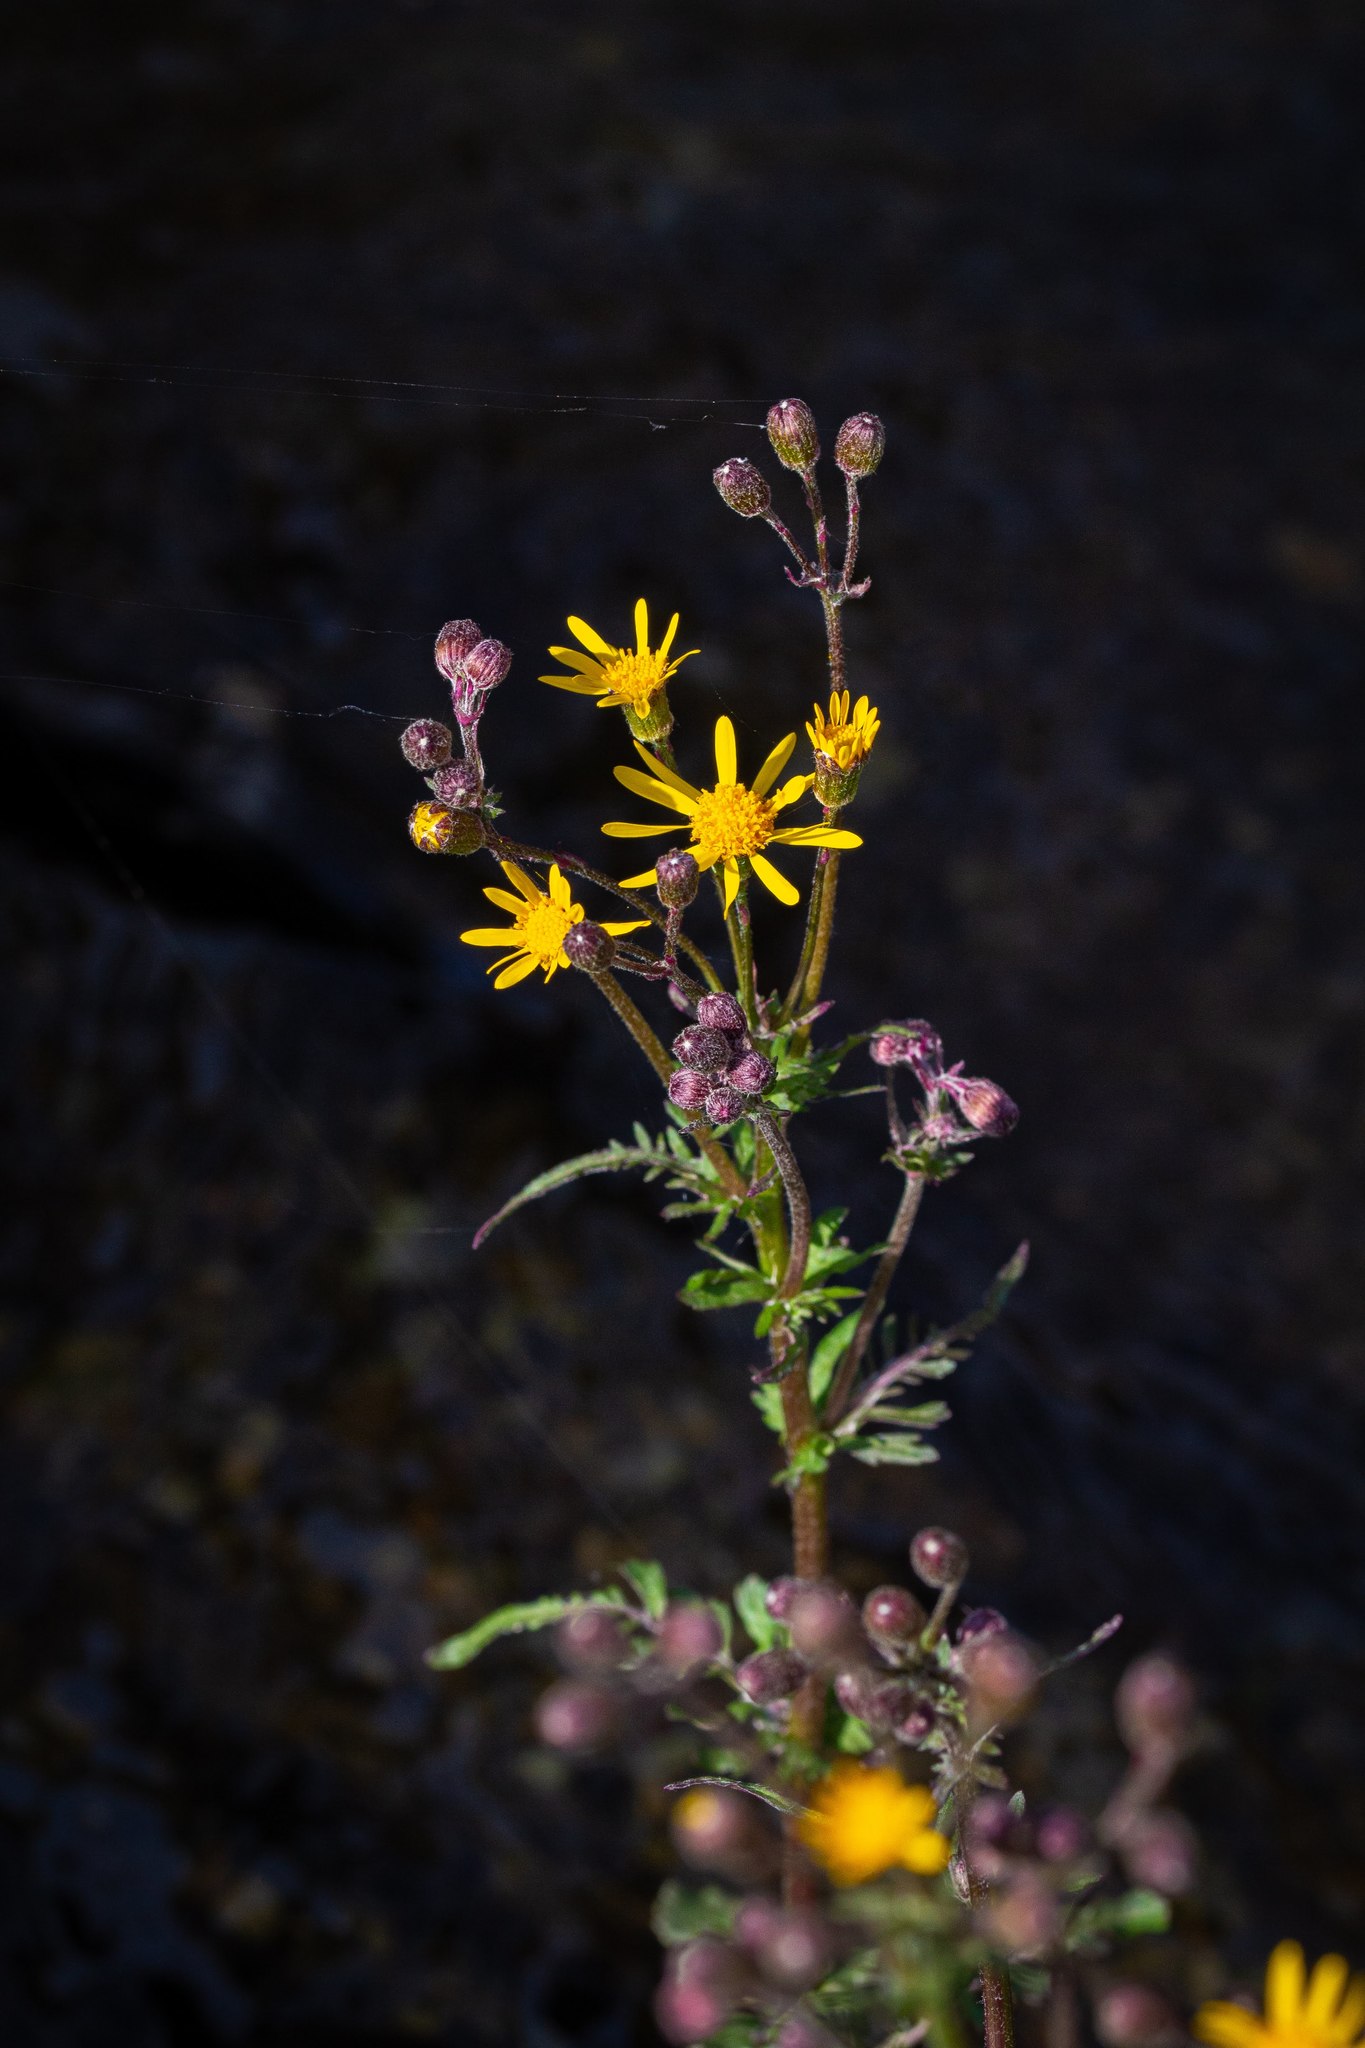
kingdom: Plantae
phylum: Tracheophyta
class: Magnoliopsida
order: Asterales
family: Asteraceae
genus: Packera
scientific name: Packera aurea
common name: Golden groundsel
